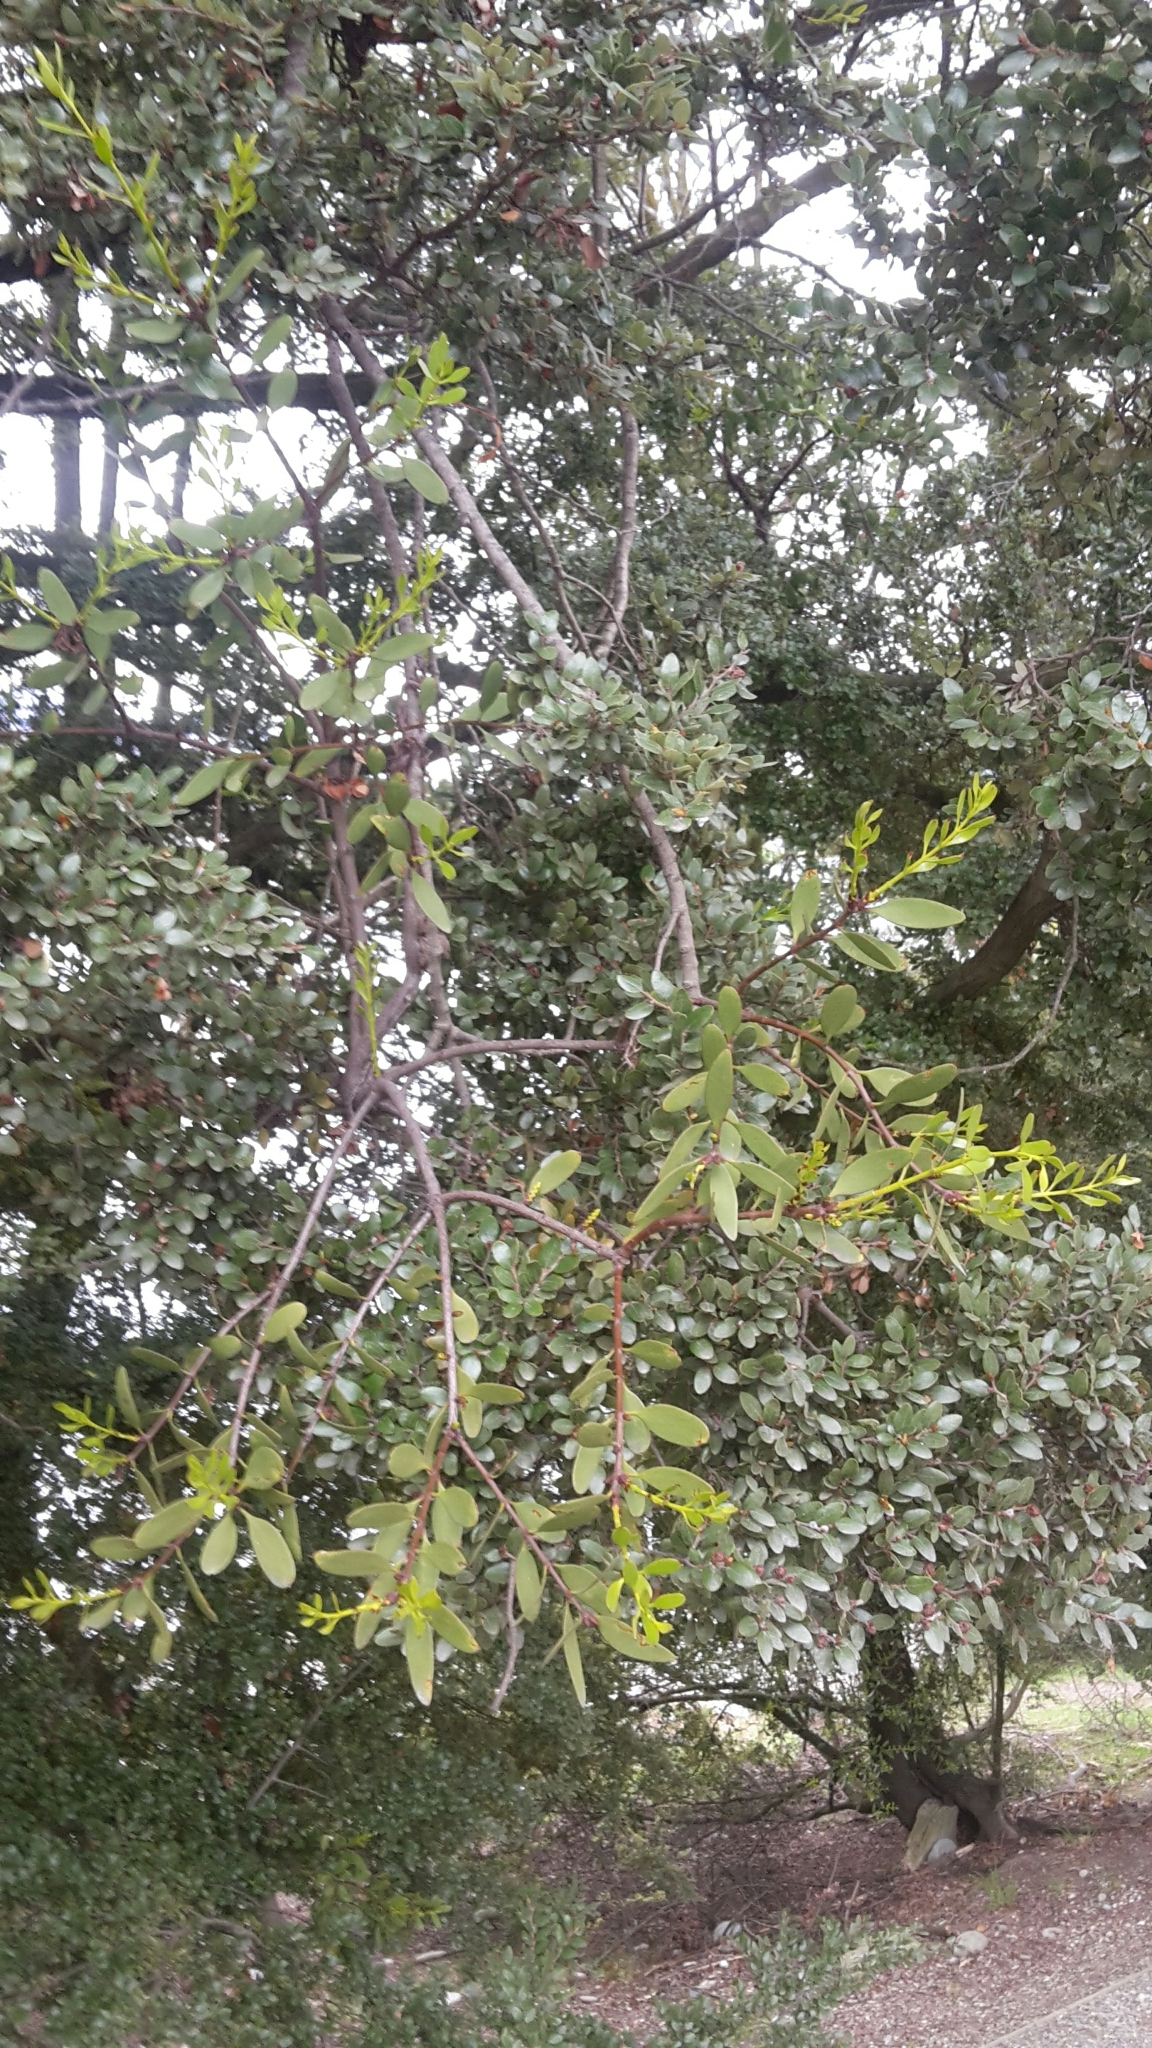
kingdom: Plantae
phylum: Tracheophyta
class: Magnoliopsida
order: Santalales
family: Loranthaceae
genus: Alepis
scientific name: Alepis flavida
